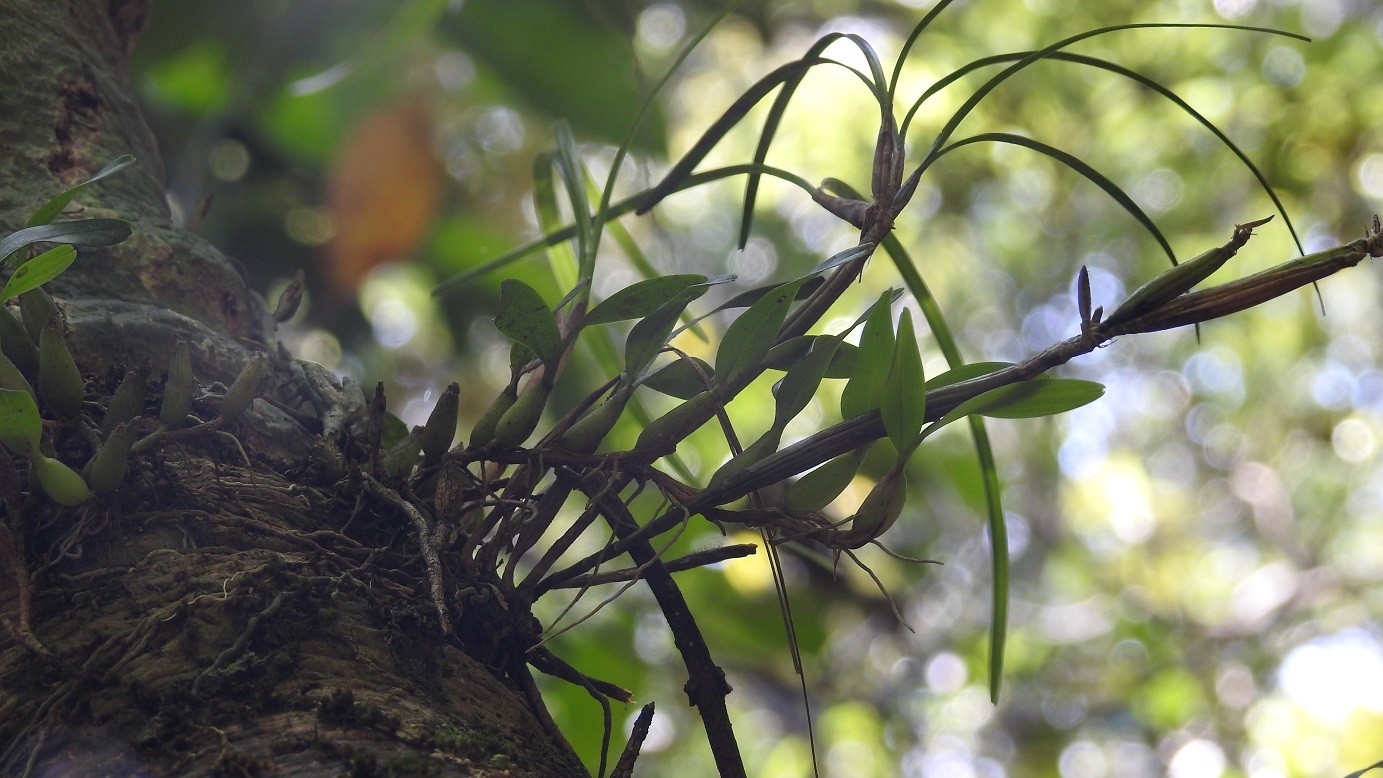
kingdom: Plantae
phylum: Tracheophyta
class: Liliopsida
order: Asparagales
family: Orchidaceae
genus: Dinema
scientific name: Dinema polybulbon
